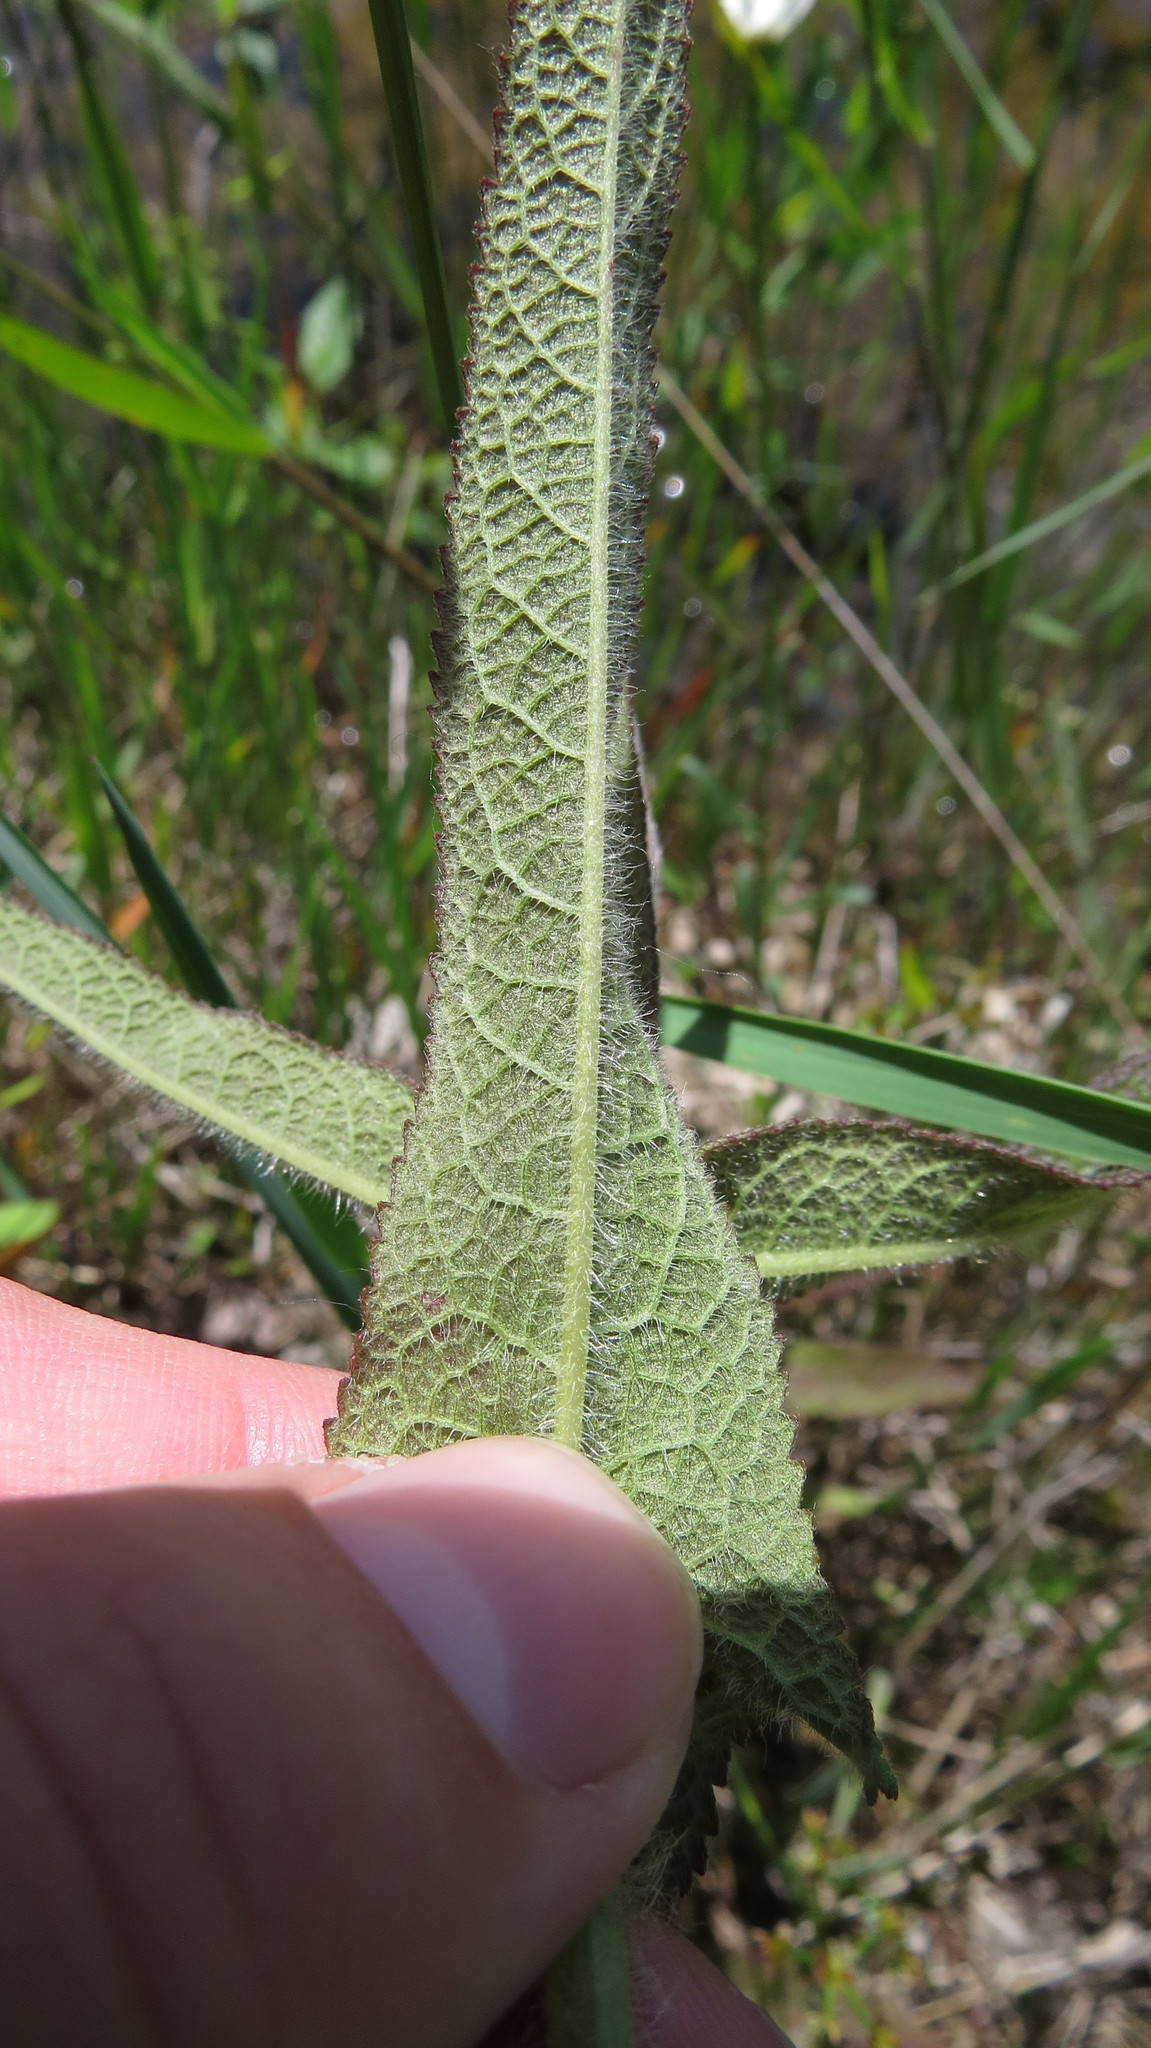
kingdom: Plantae
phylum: Tracheophyta
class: Magnoliopsida
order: Asterales
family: Asteraceae
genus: Eupatorium
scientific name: Eupatorium perfoliatum
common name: Boneset
